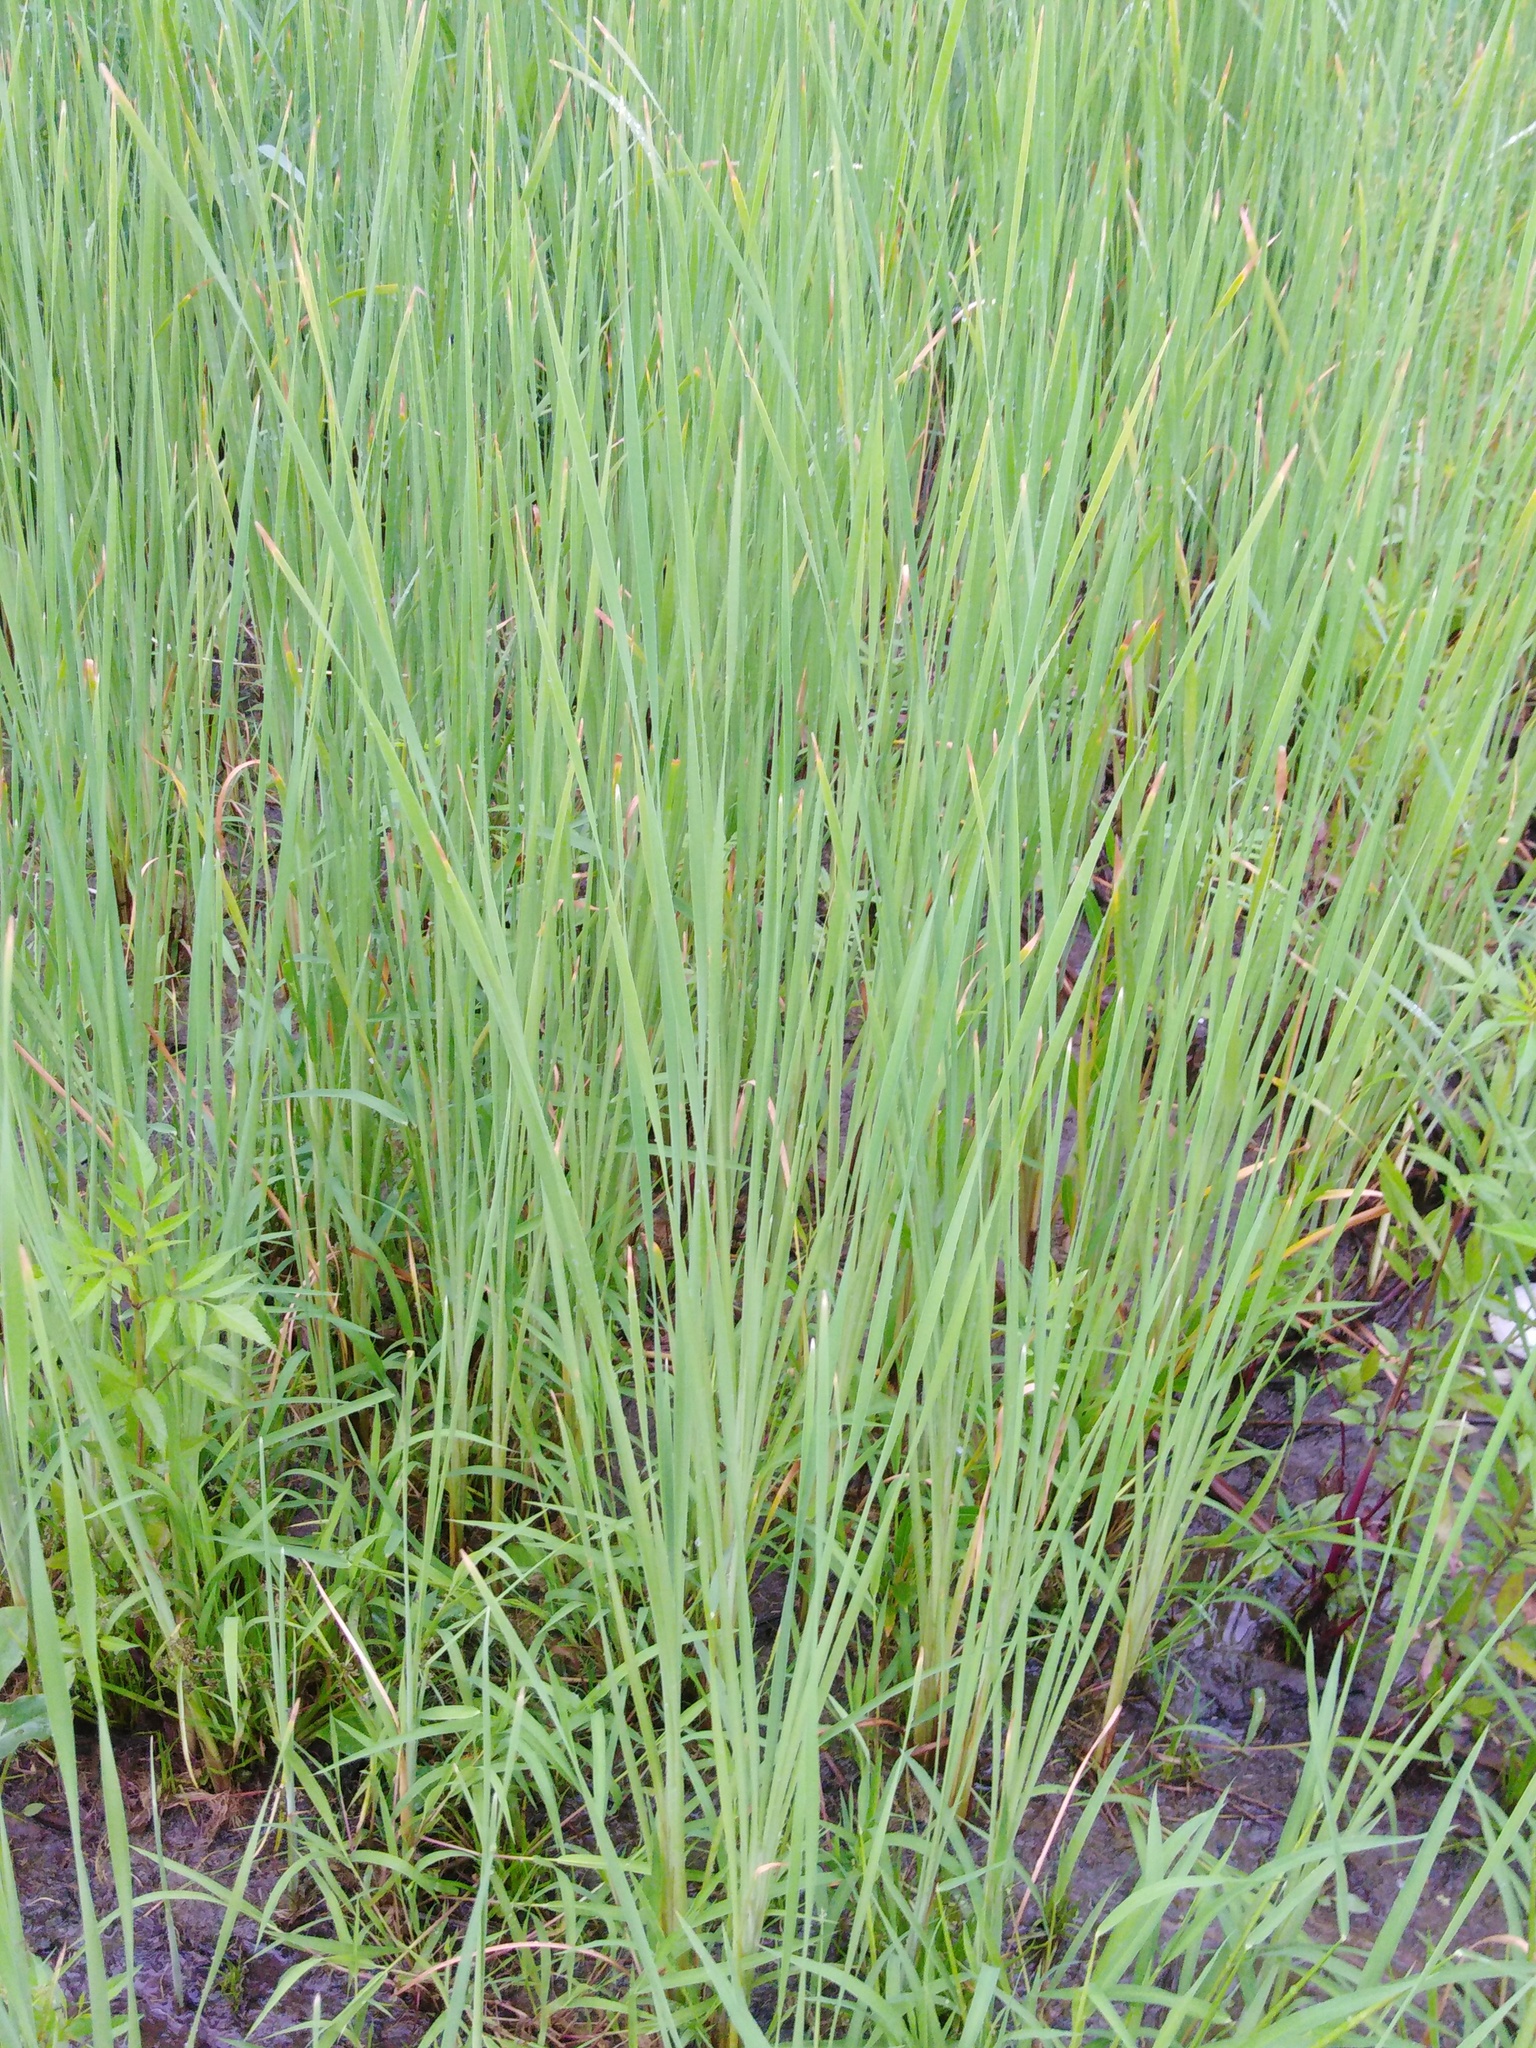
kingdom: Plantae
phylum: Tracheophyta
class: Liliopsida
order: Poales
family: Typhaceae
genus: Typha
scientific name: Typha laxmannii
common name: Laxman’s bulrush
